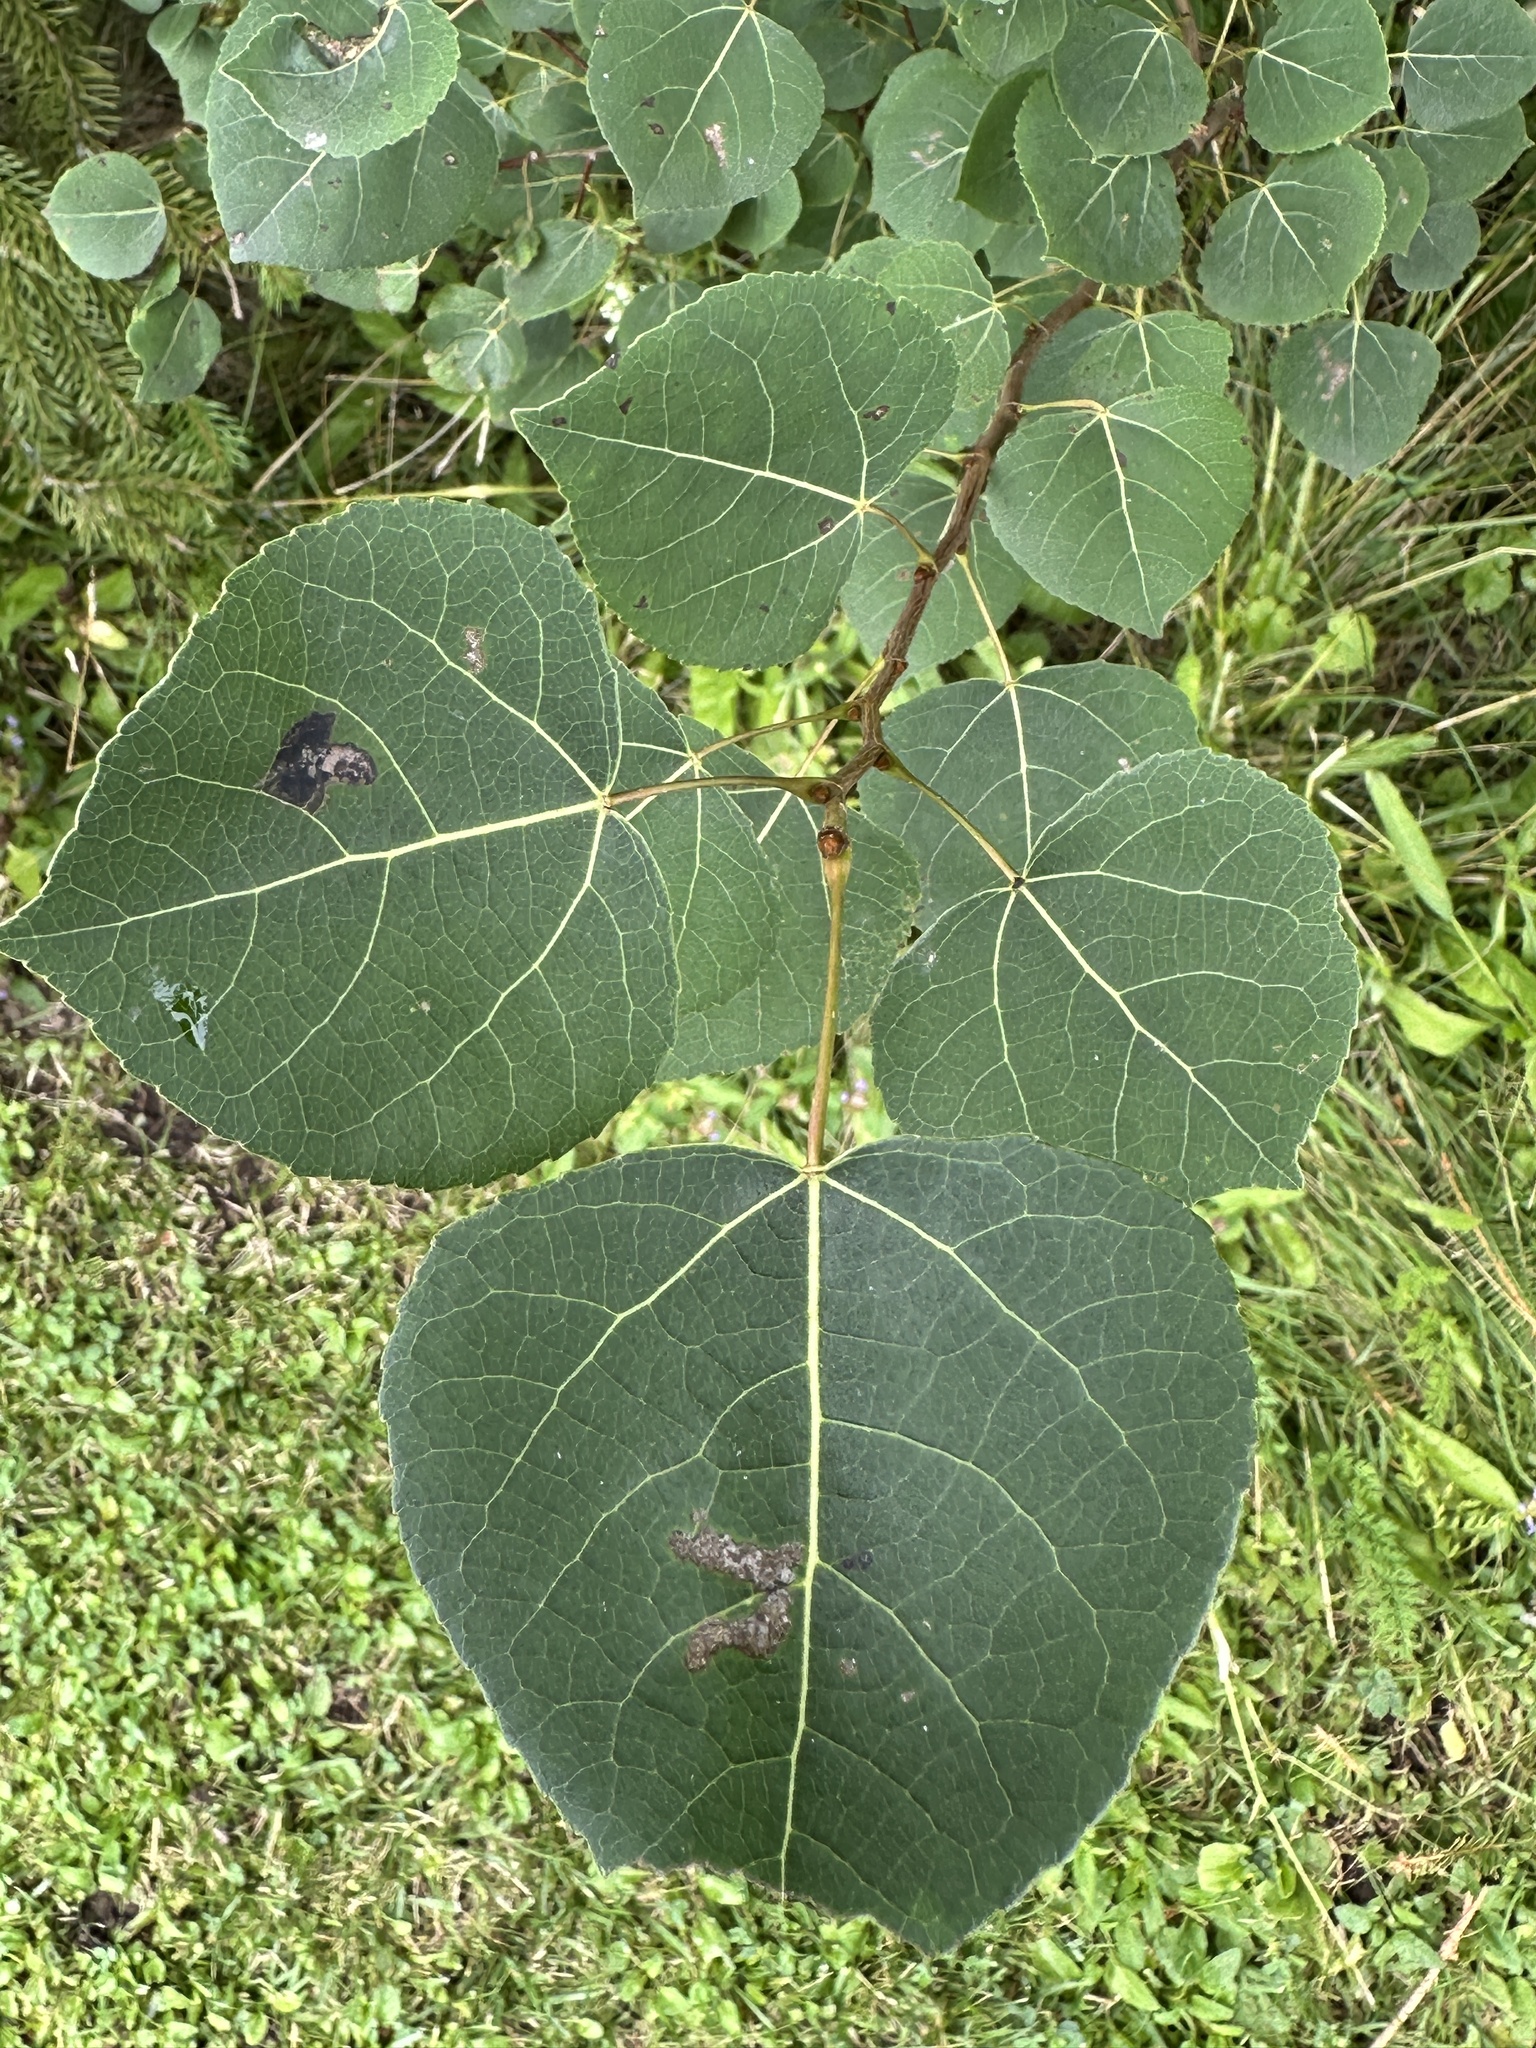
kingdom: Plantae
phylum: Tracheophyta
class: Magnoliopsida
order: Malpighiales
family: Salicaceae
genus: Populus
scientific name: Populus tremuloides
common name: Quaking aspen
